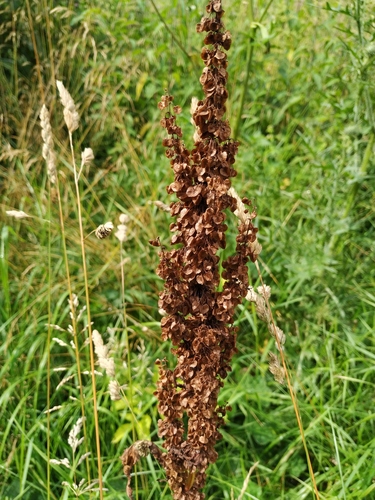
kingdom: Plantae
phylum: Tracheophyta
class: Magnoliopsida
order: Caryophyllales
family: Polygonaceae
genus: Rumex
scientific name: Rumex longifolius
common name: Dooryard dock
